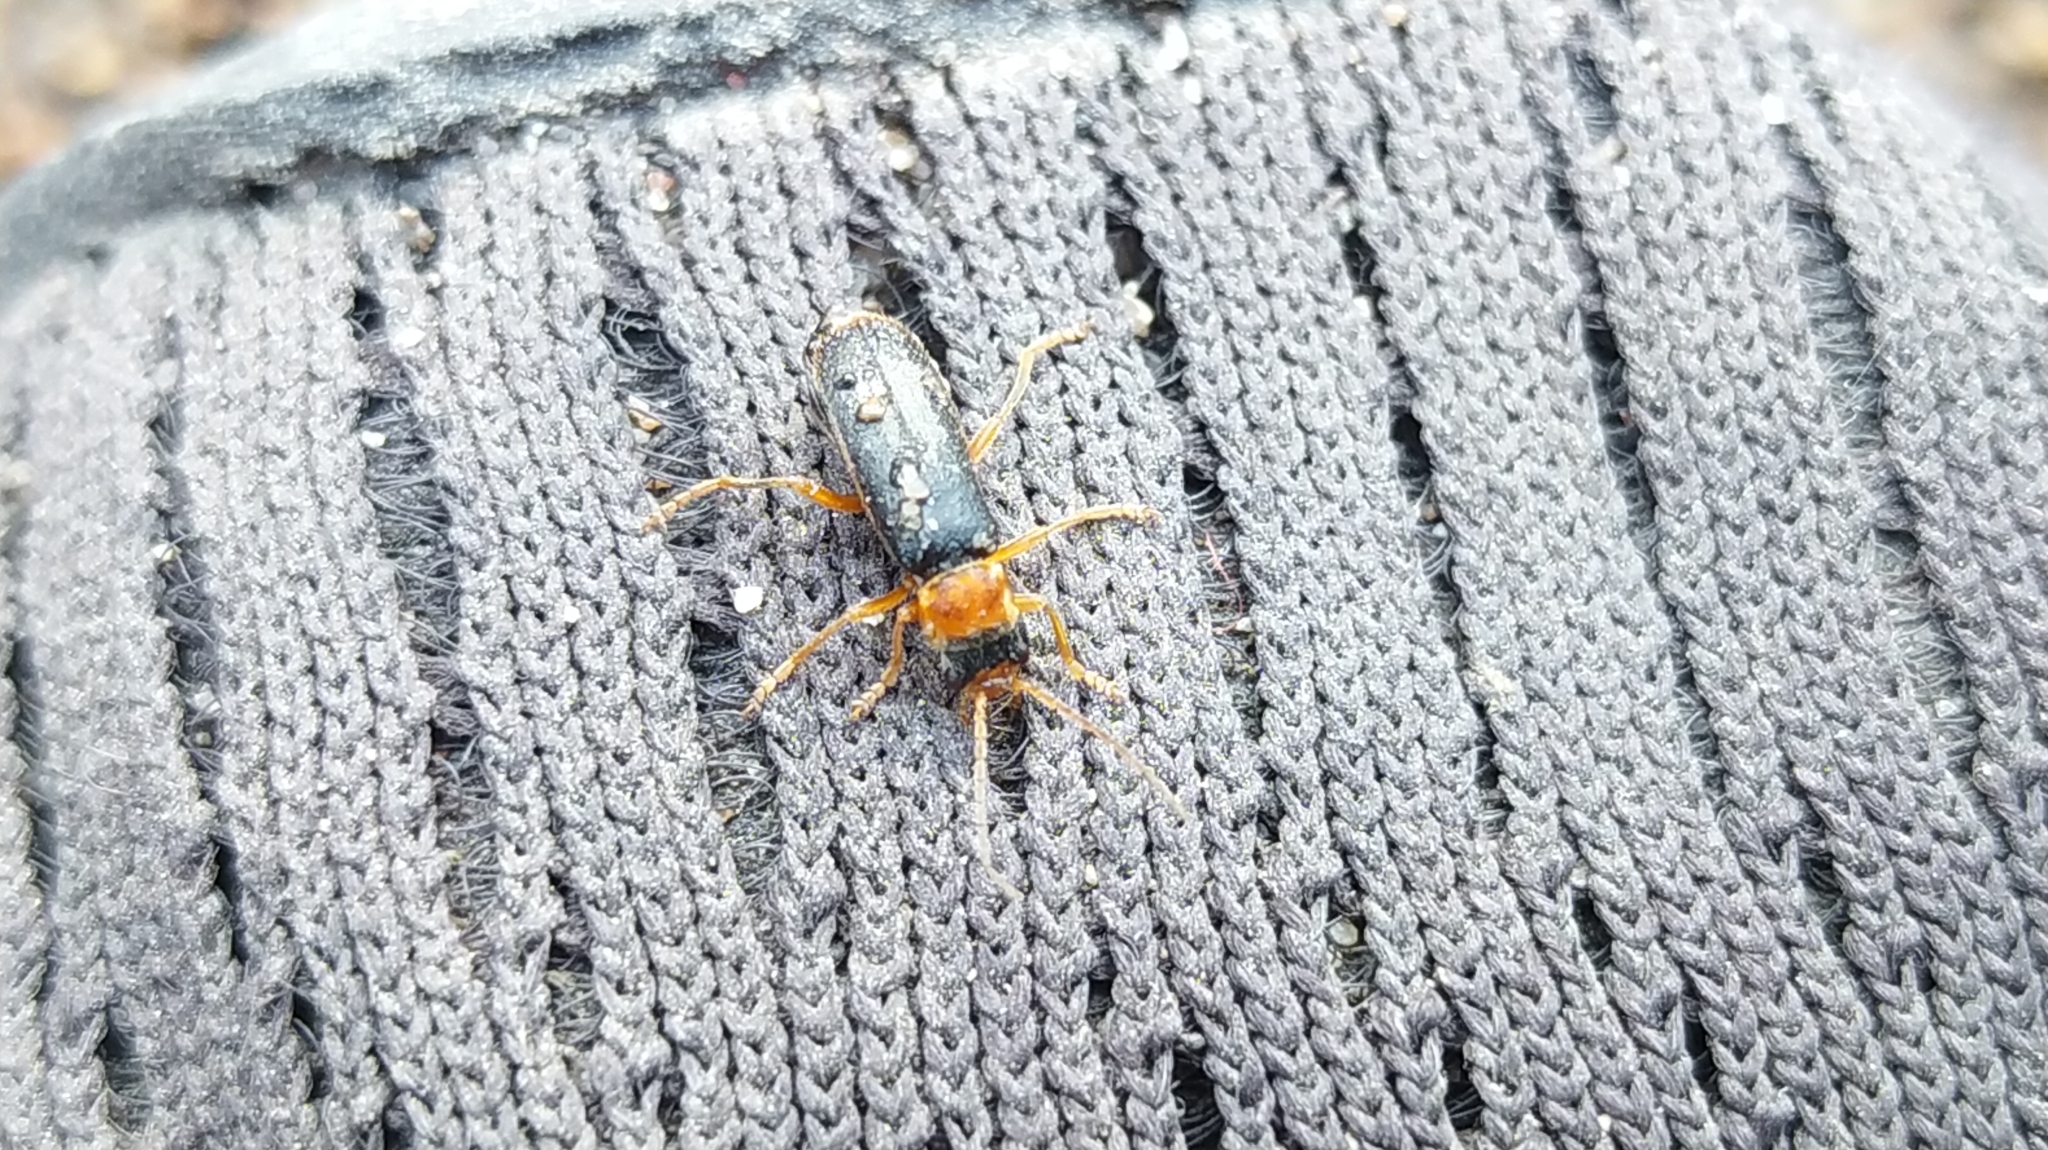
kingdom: Animalia
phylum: Arthropoda
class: Insecta
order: Coleoptera
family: Cantharidae
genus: Cantharis
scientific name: Cantharis lateralis
